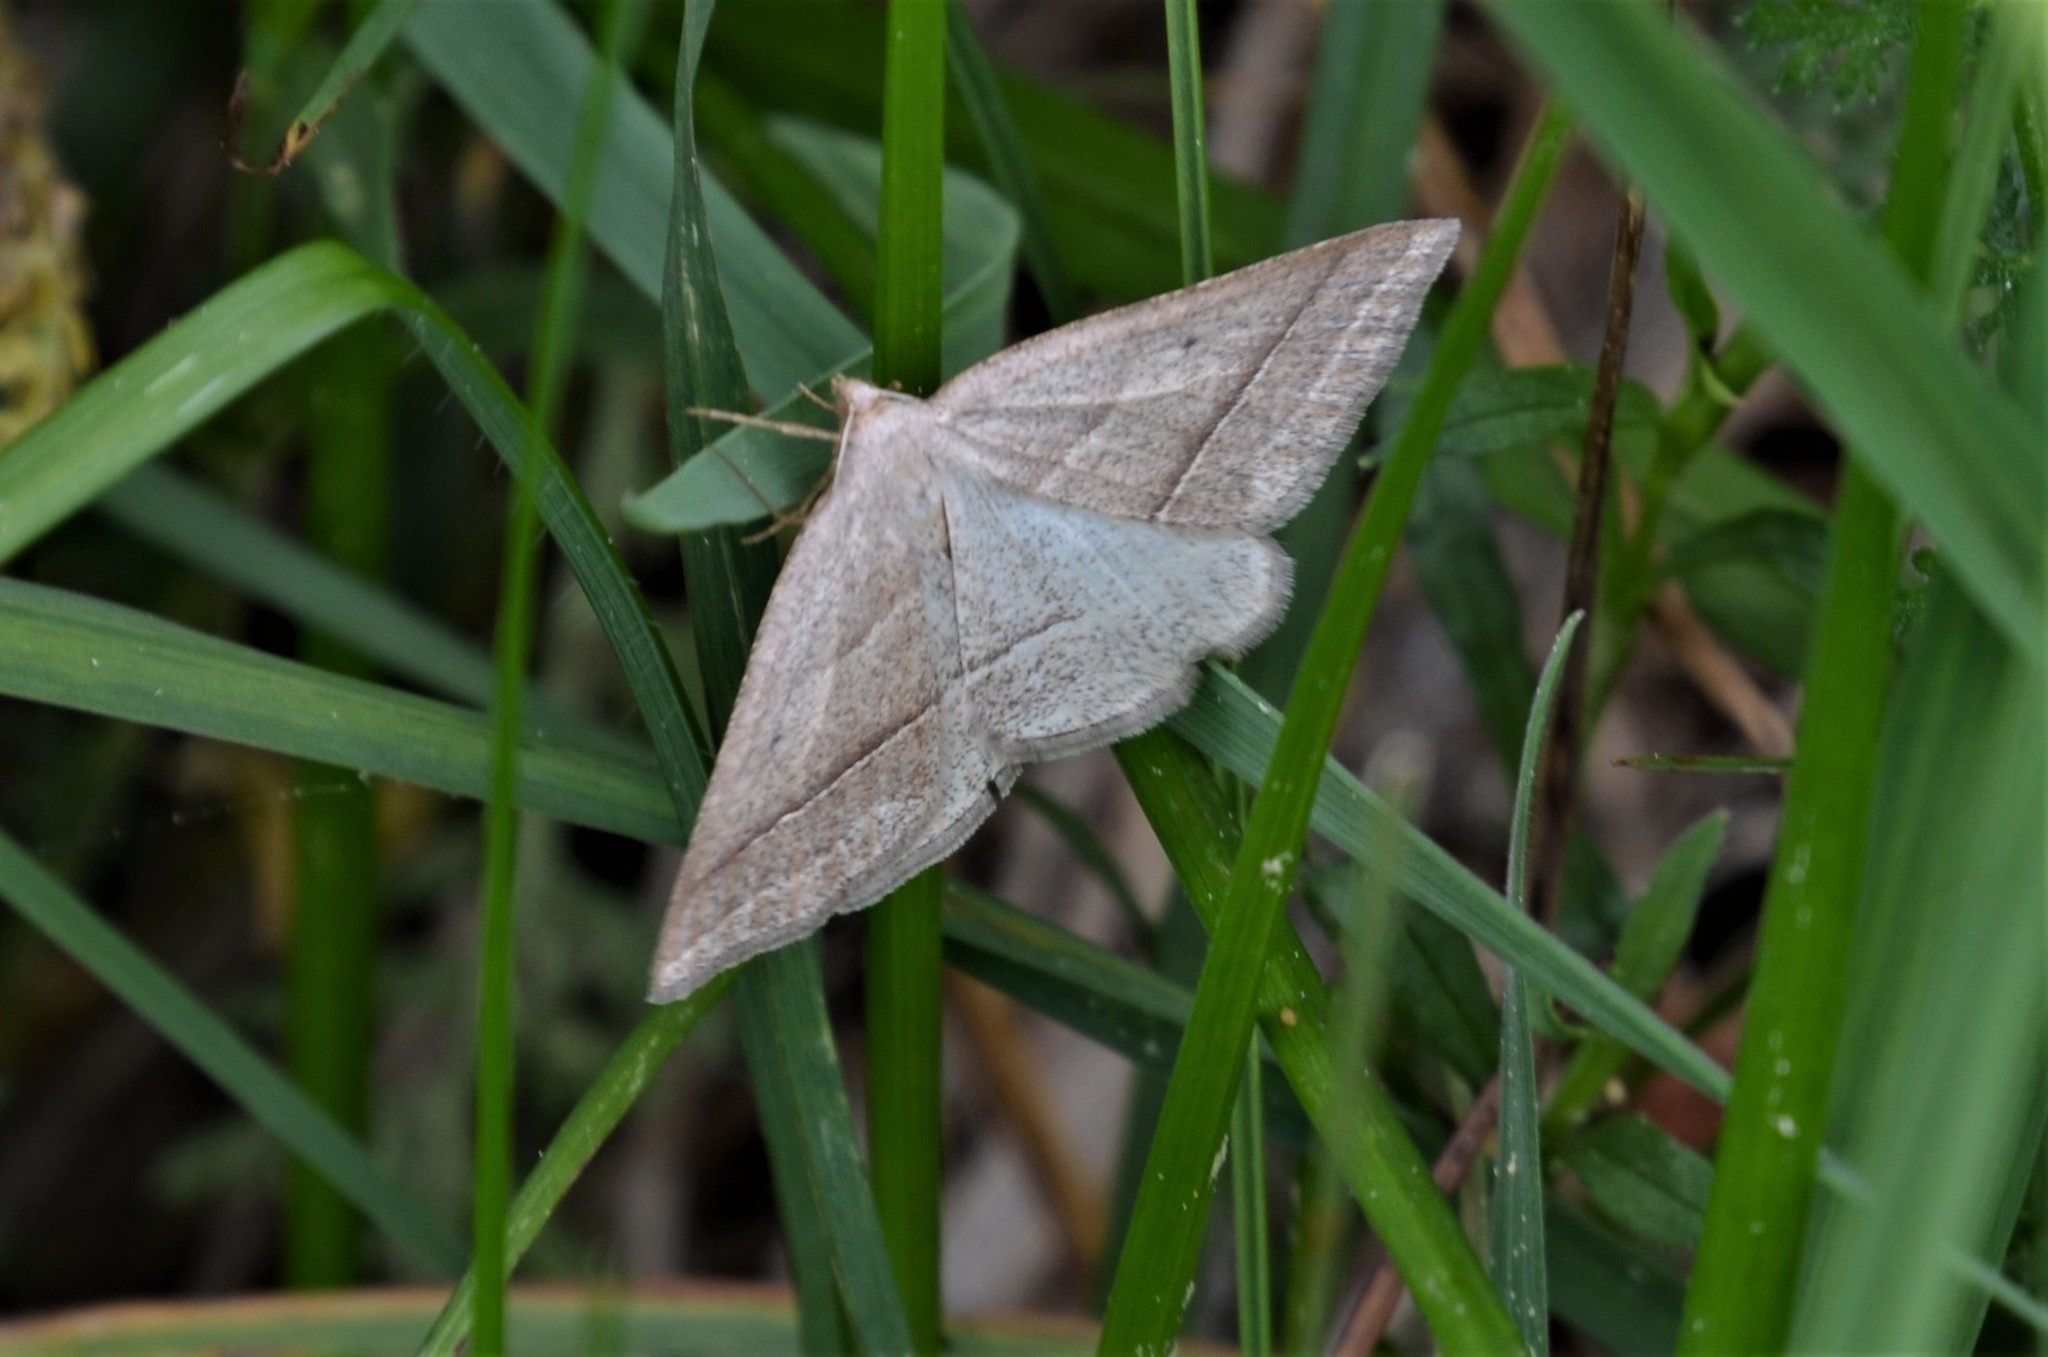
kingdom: Animalia
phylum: Arthropoda
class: Insecta
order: Lepidoptera
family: Pterophoridae
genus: Pterophorus
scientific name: Pterophorus Petrophora chlorosata
